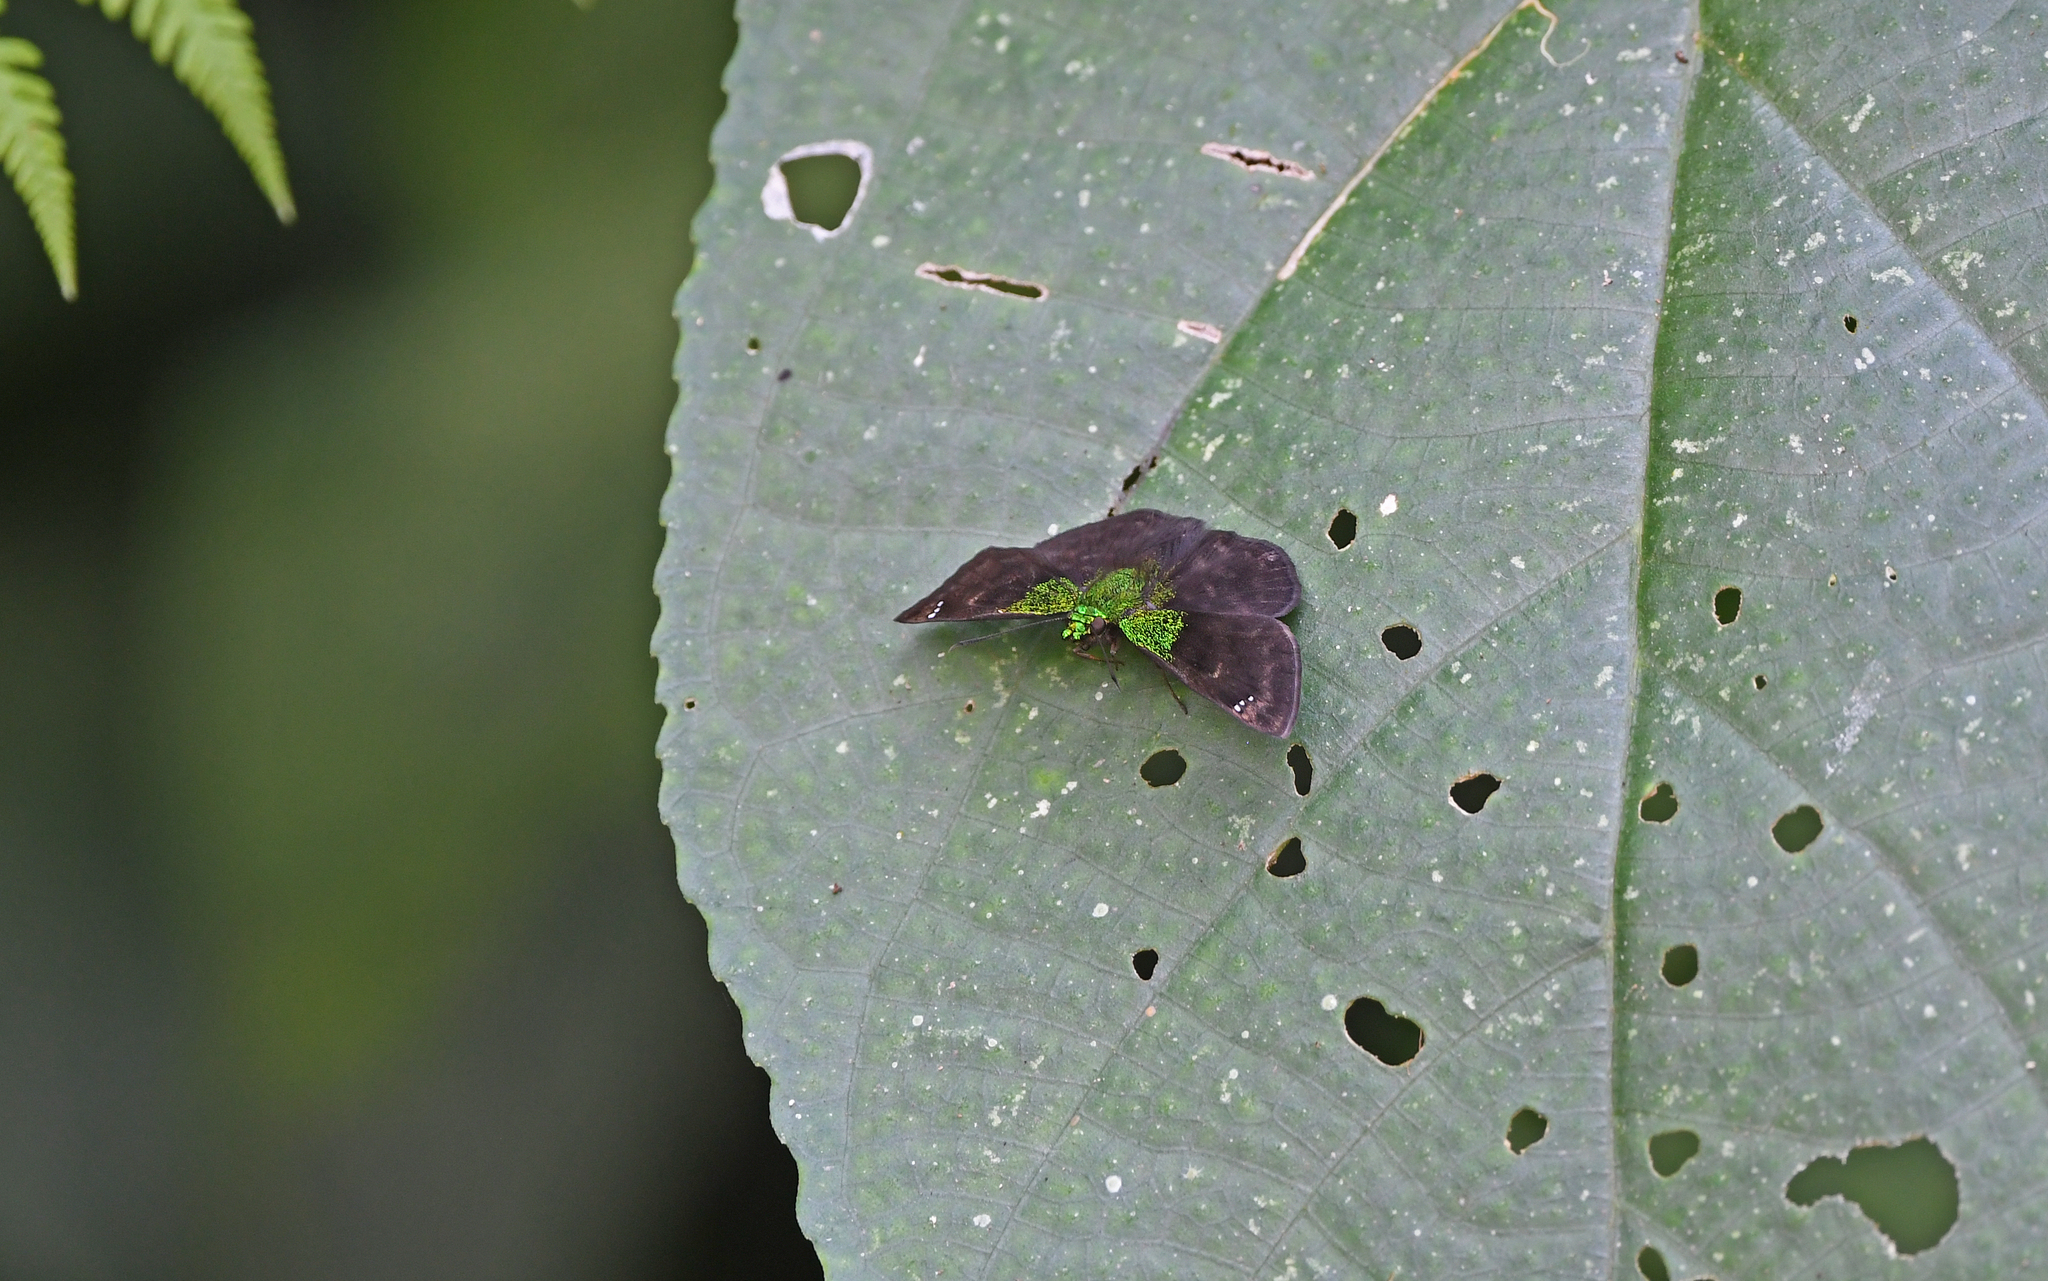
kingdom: Animalia
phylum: Arthropoda
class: Insecta
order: Lepidoptera
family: Hesperiidae
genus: Gorgopas
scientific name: Gorgopas trochilus
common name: Green-shouldered sootywing
